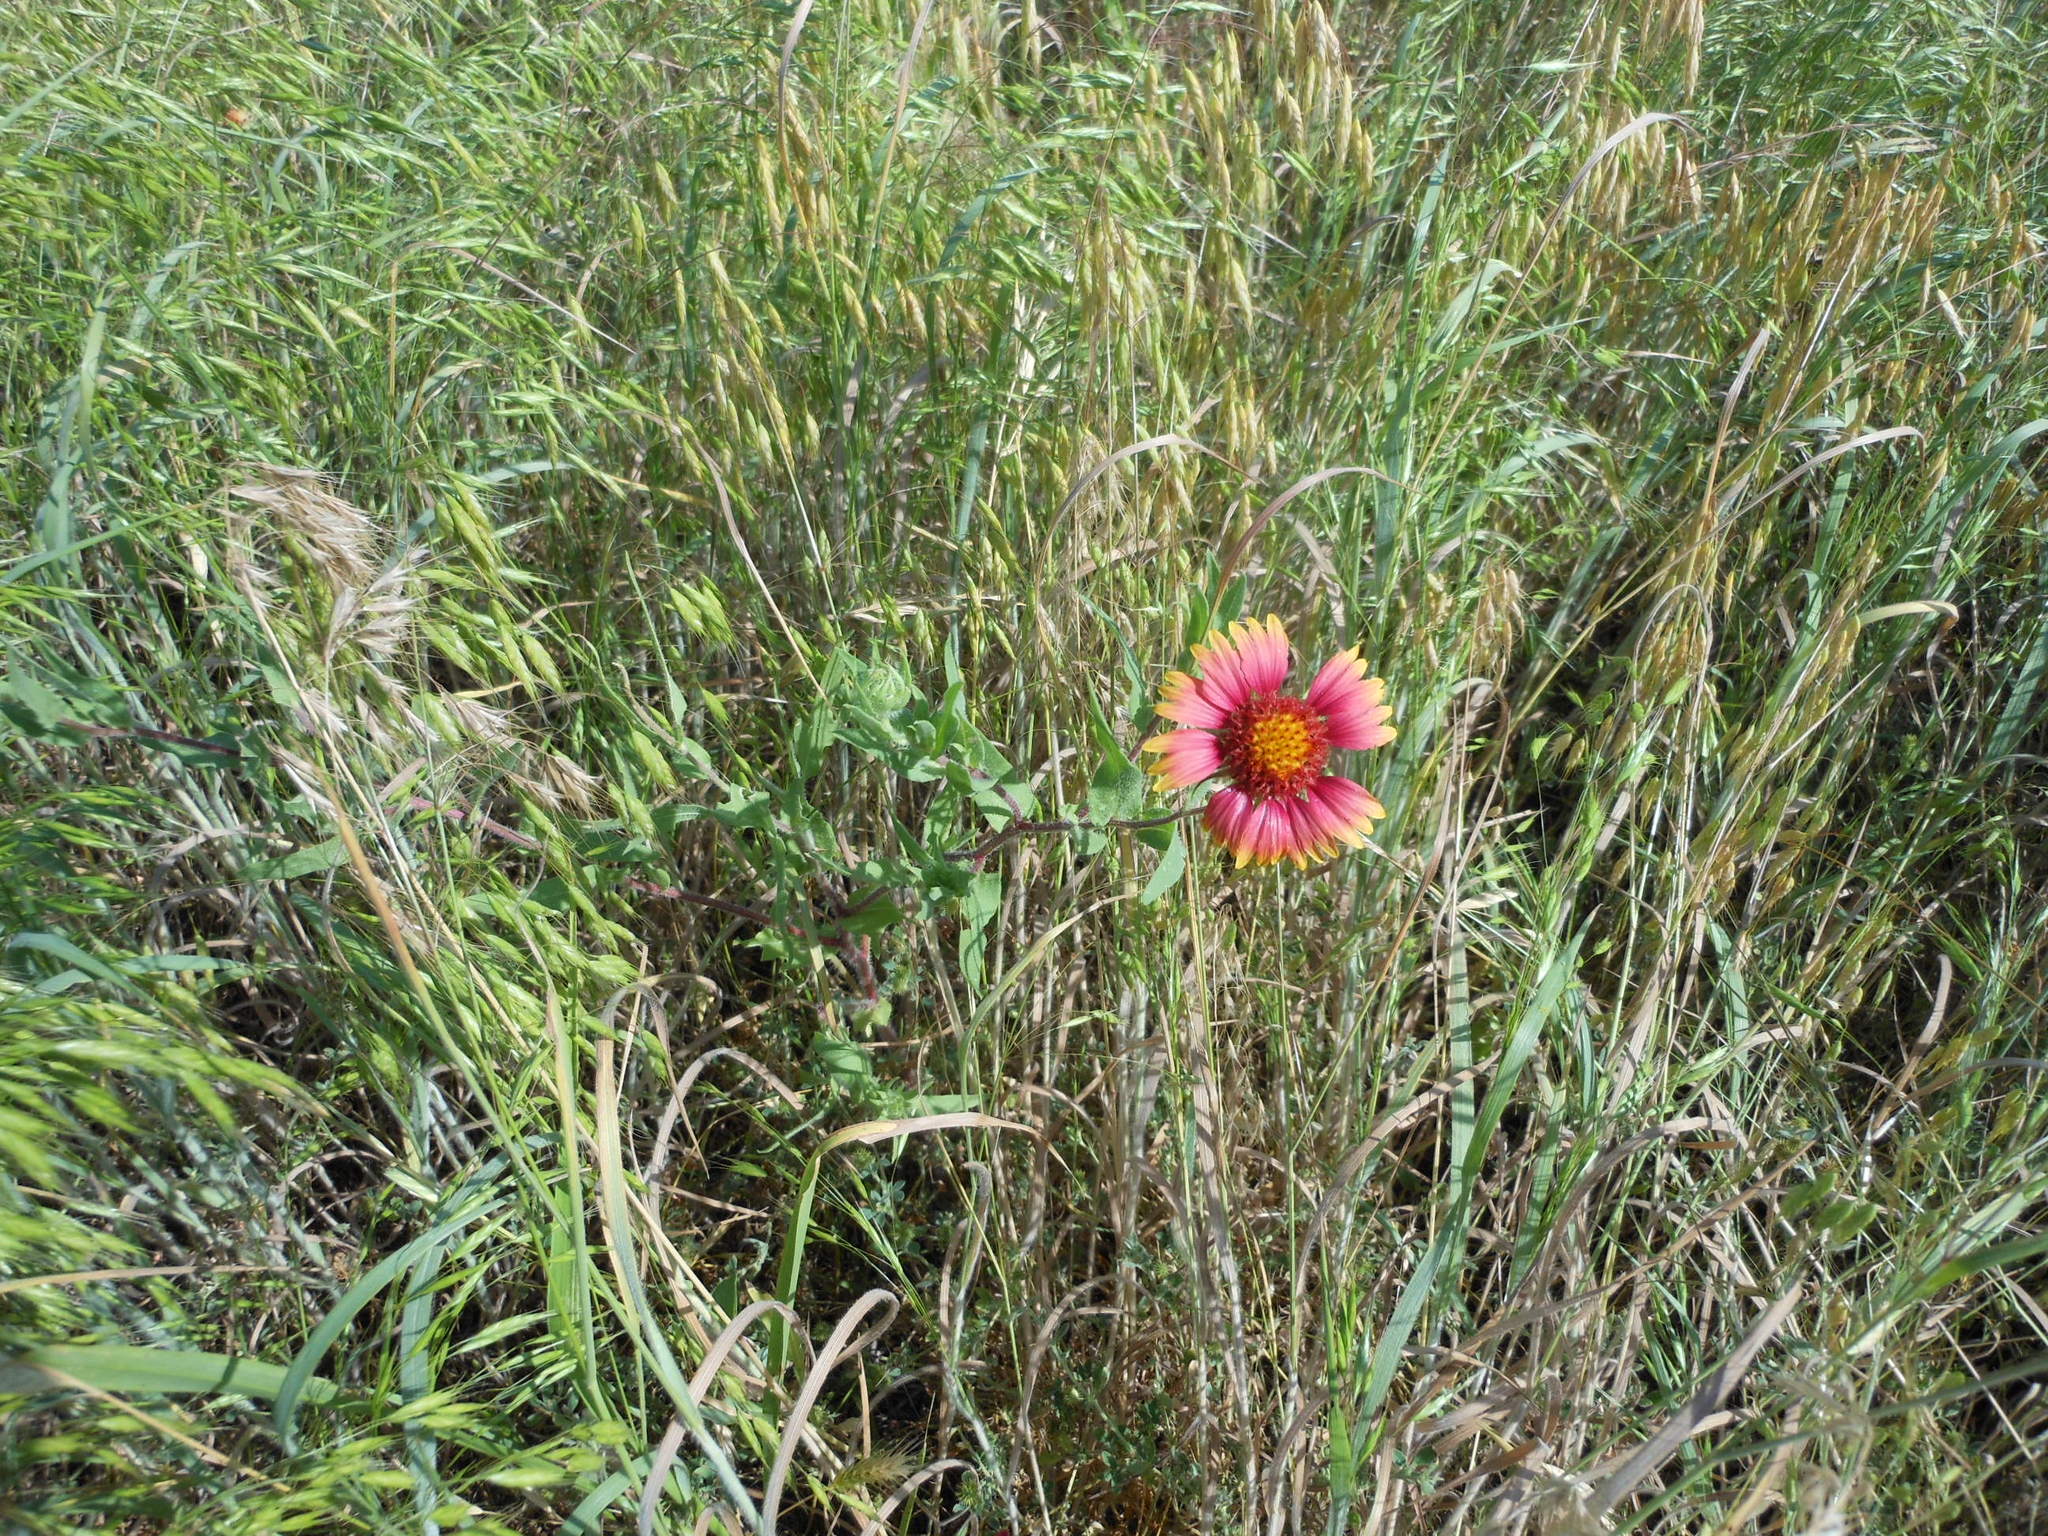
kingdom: Plantae
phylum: Tracheophyta
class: Magnoliopsida
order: Asterales
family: Asteraceae
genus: Gaillardia
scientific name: Gaillardia pulchella
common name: Firewheel
